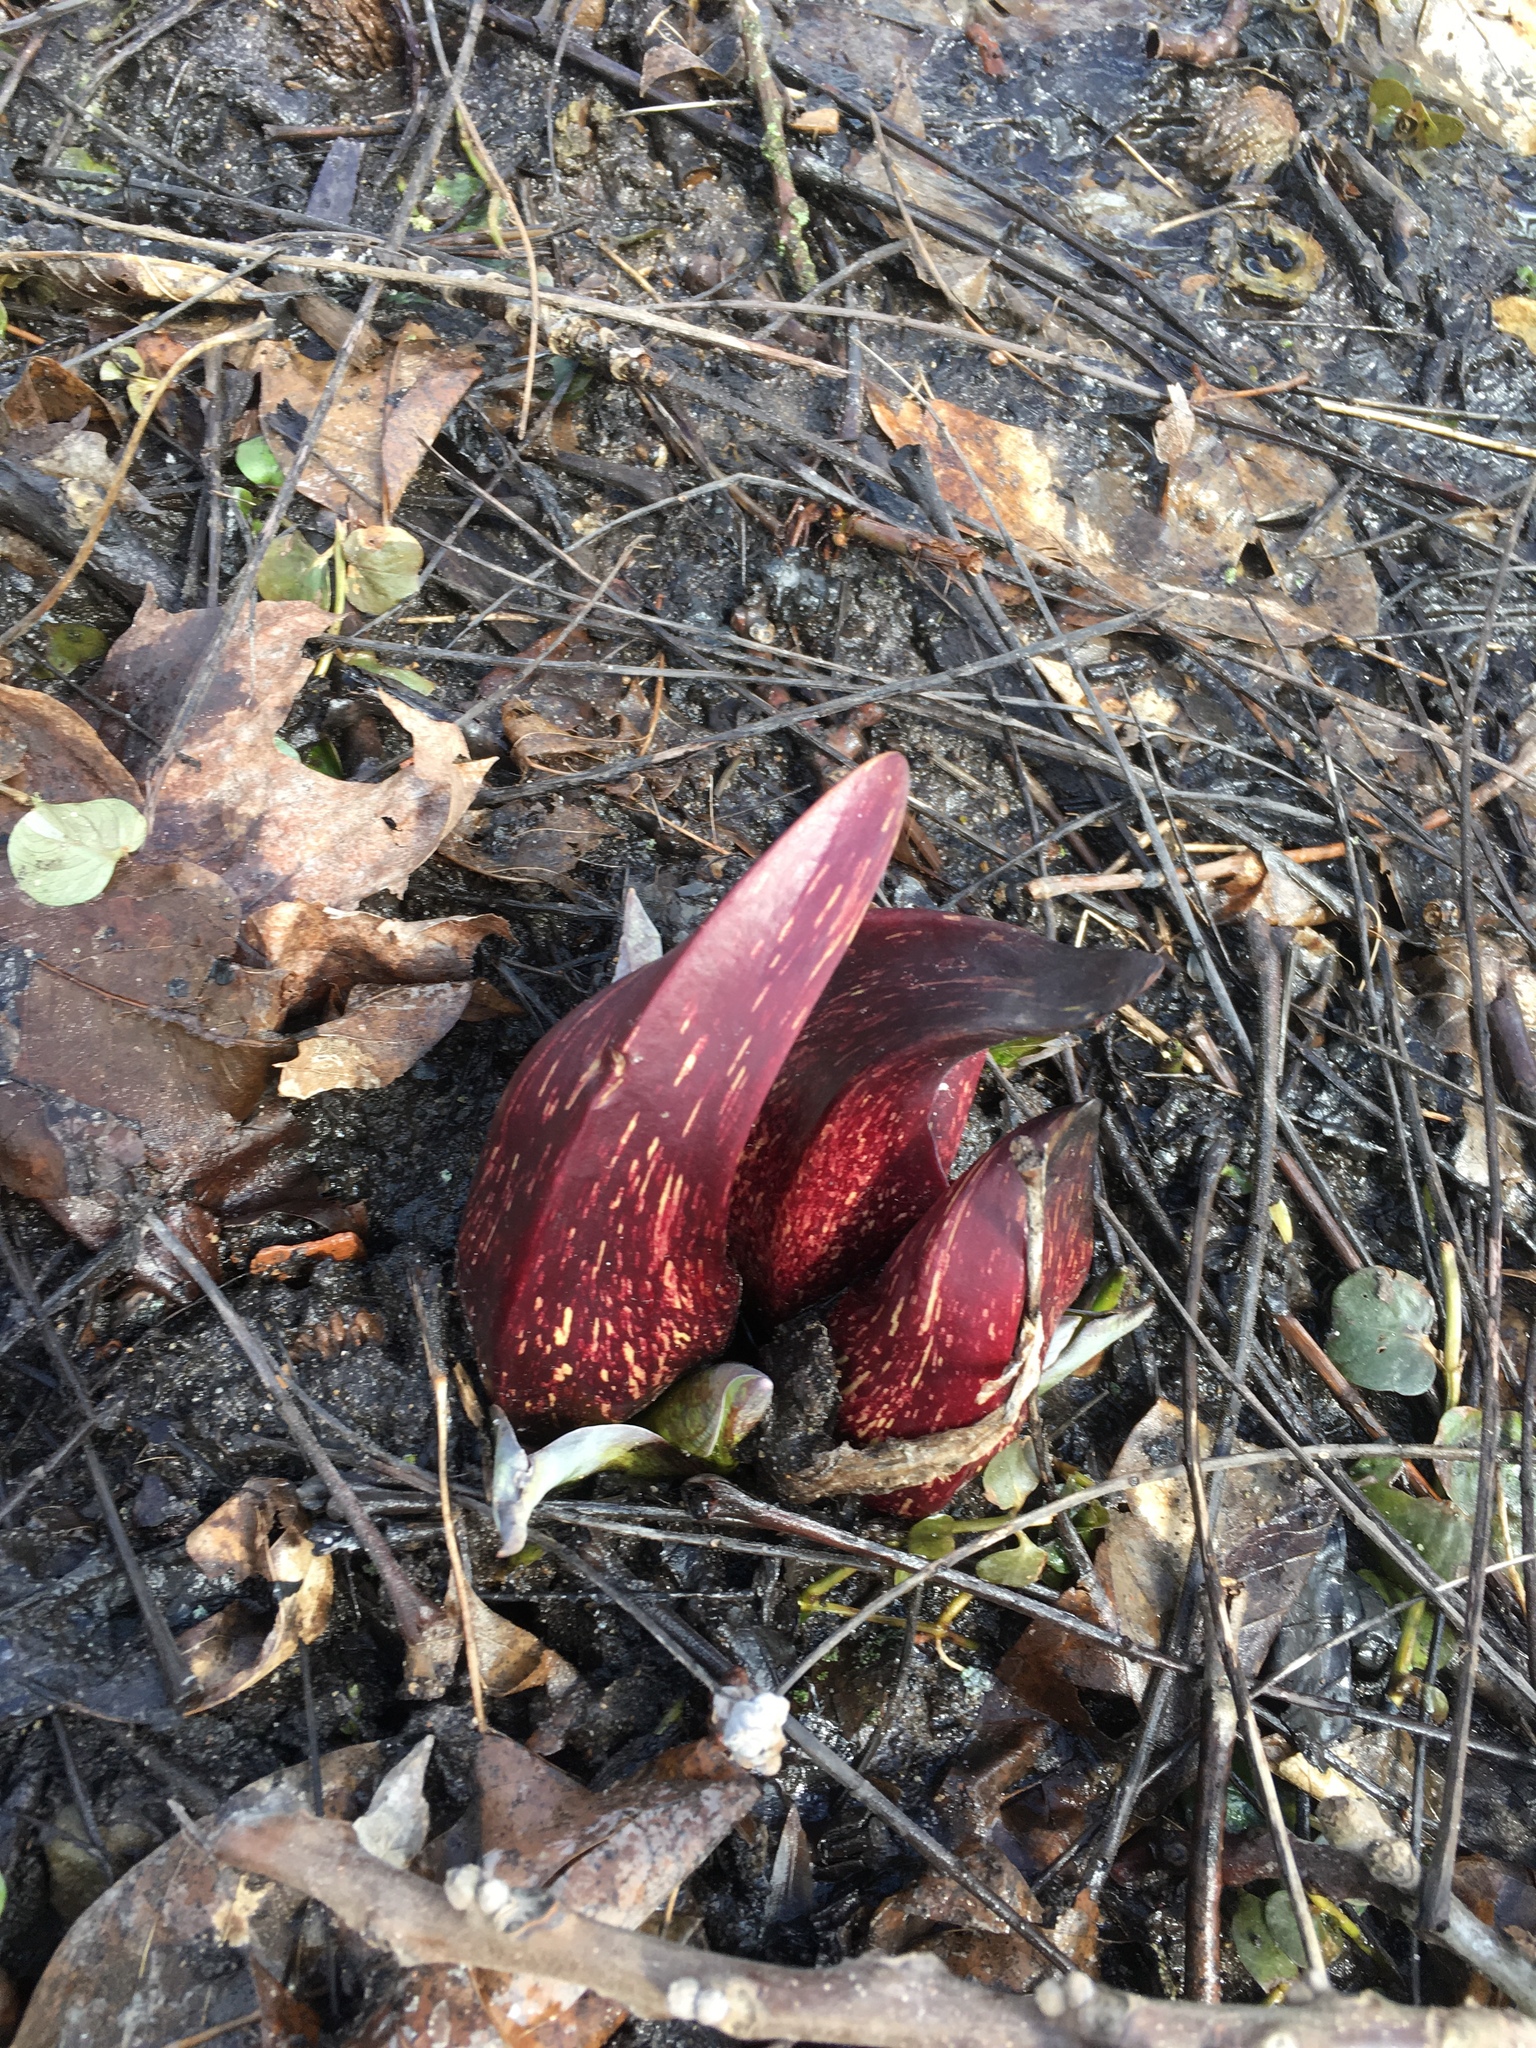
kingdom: Plantae
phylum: Tracheophyta
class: Liliopsida
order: Alismatales
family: Araceae
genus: Symplocarpus
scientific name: Symplocarpus foetidus
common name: Eastern skunk cabbage
